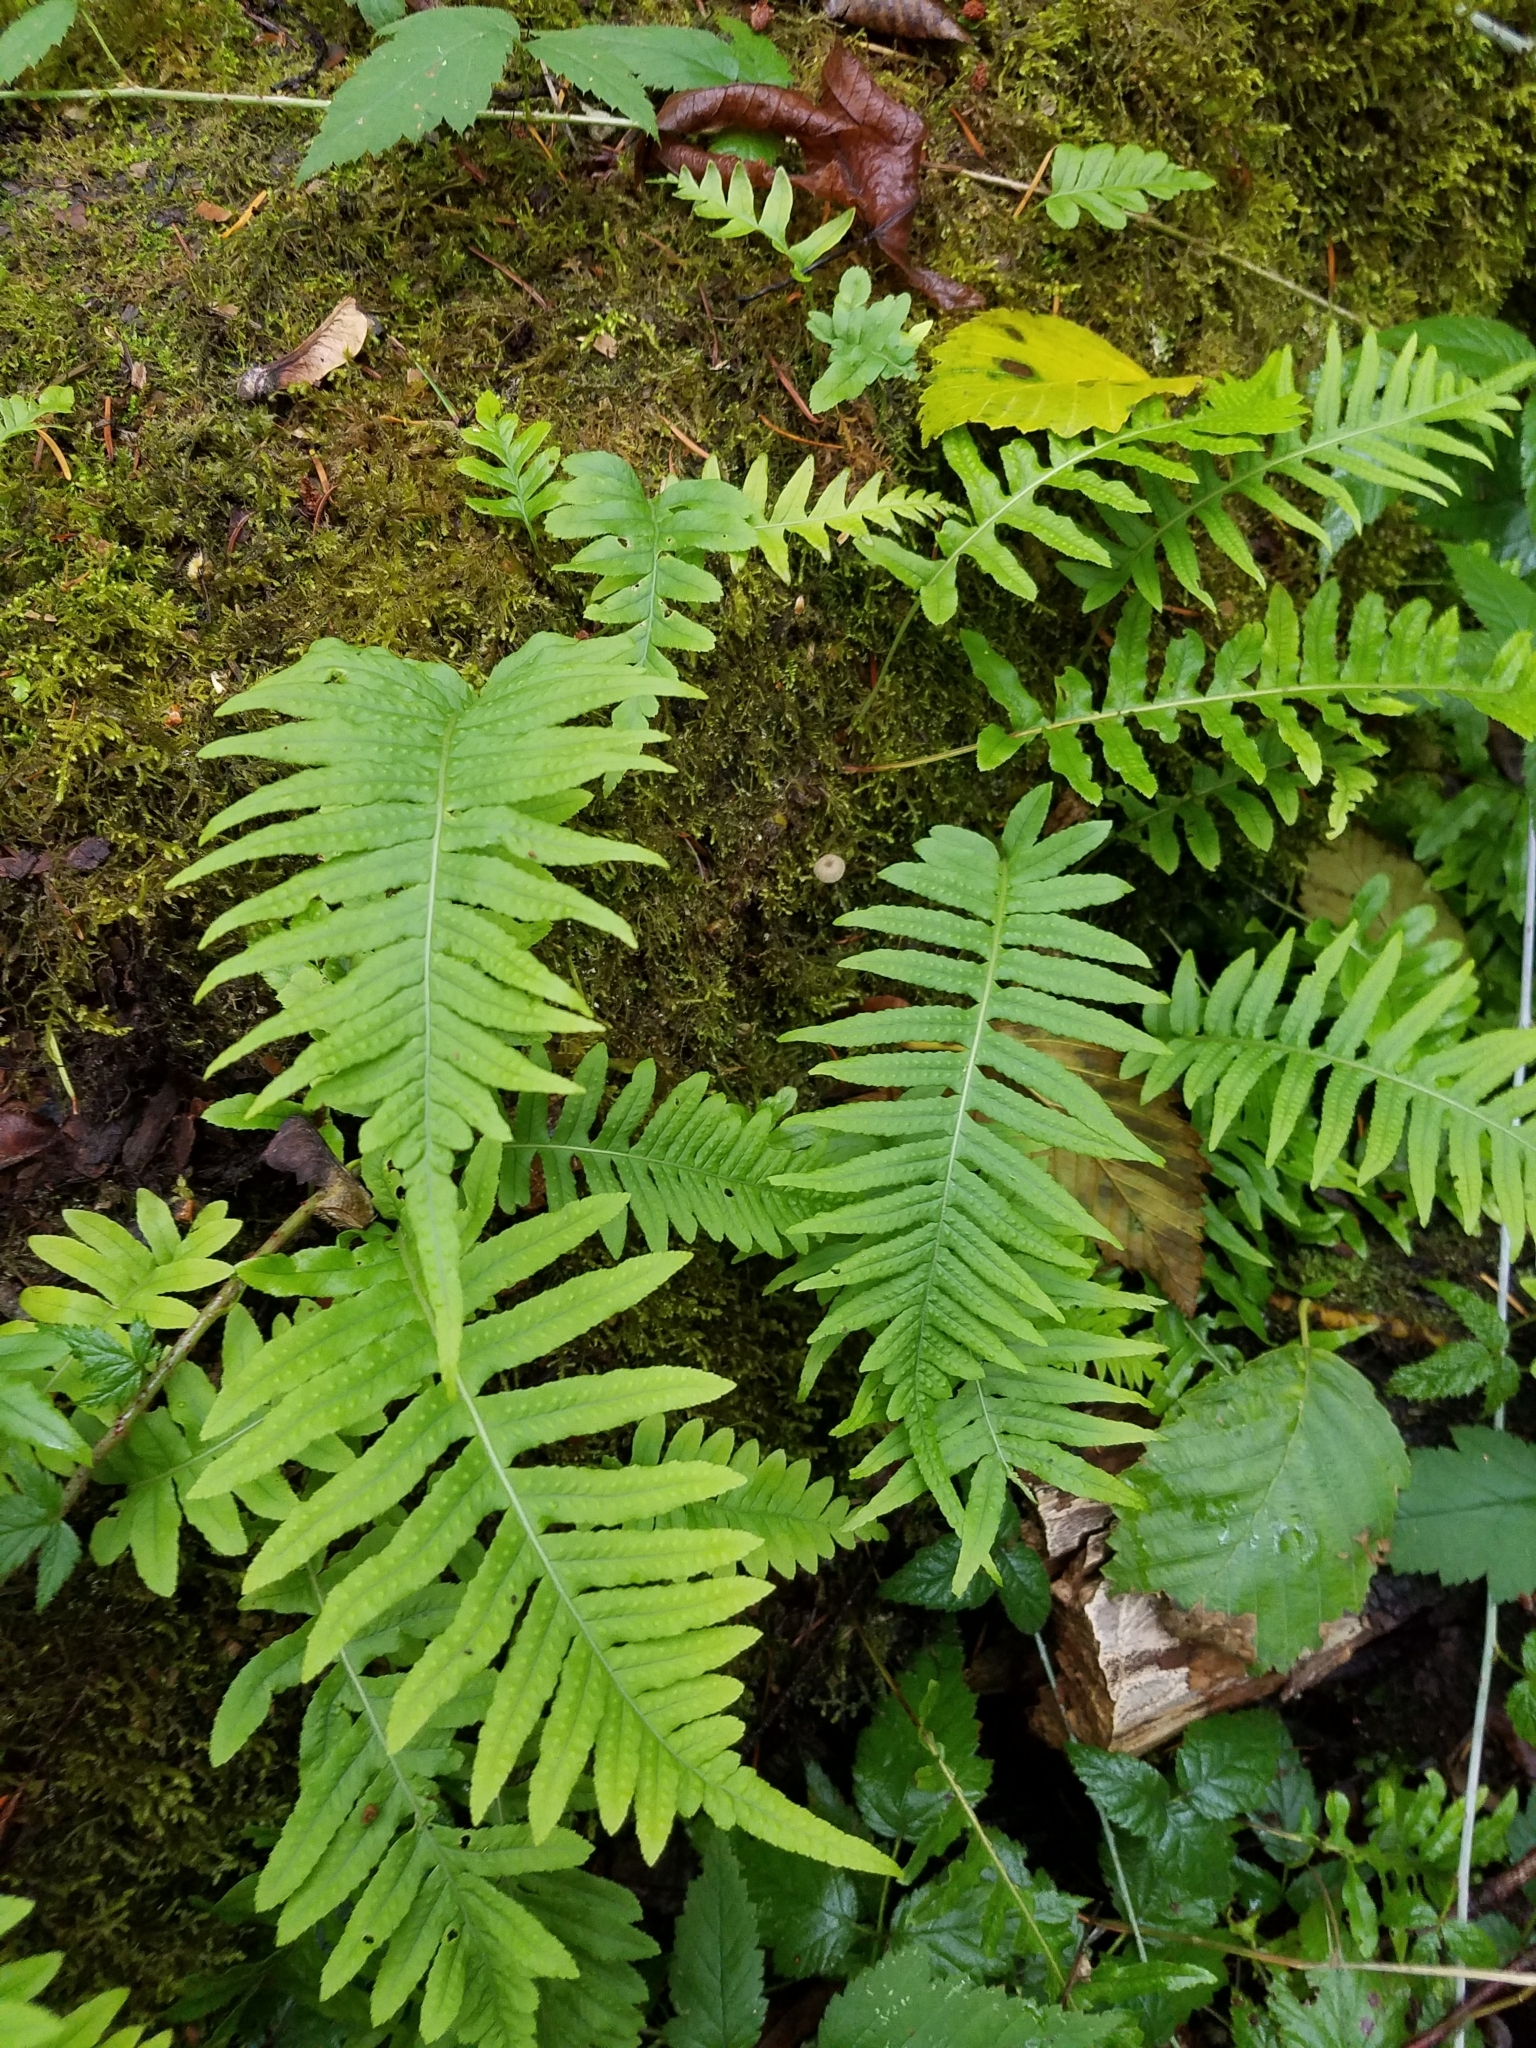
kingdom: Plantae
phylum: Tracheophyta
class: Polypodiopsida
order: Polypodiales
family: Polypodiaceae
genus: Polypodium
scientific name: Polypodium glycyrrhiza
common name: Licorice fern
